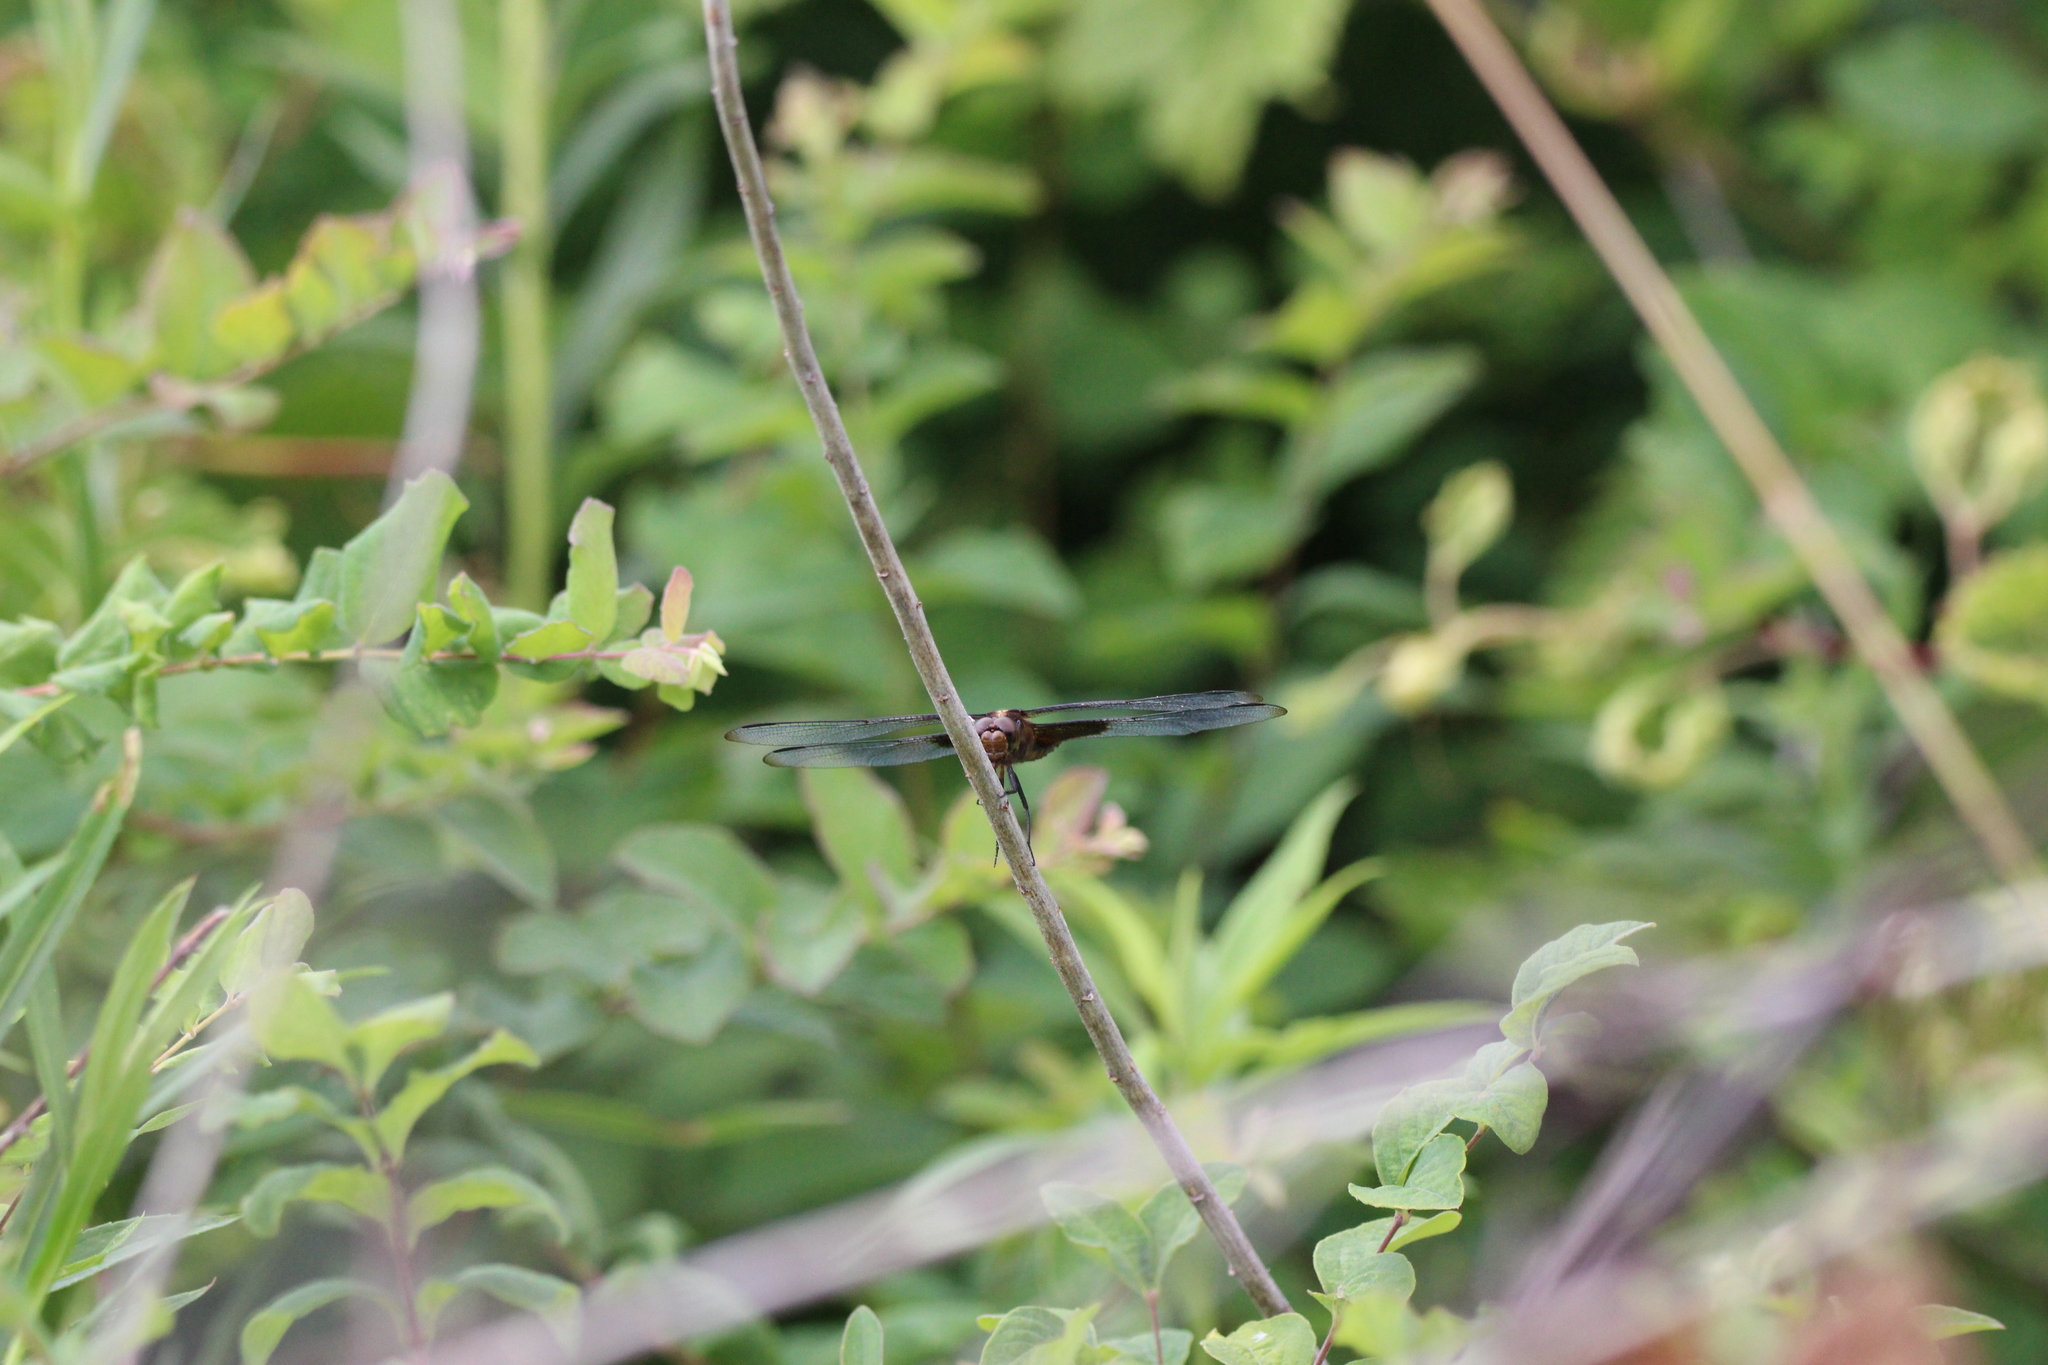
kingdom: Animalia
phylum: Arthropoda
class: Insecta
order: Odonata
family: Libellulidae
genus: Libellula
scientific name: Libellula luctuosa
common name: Widow skimmer
